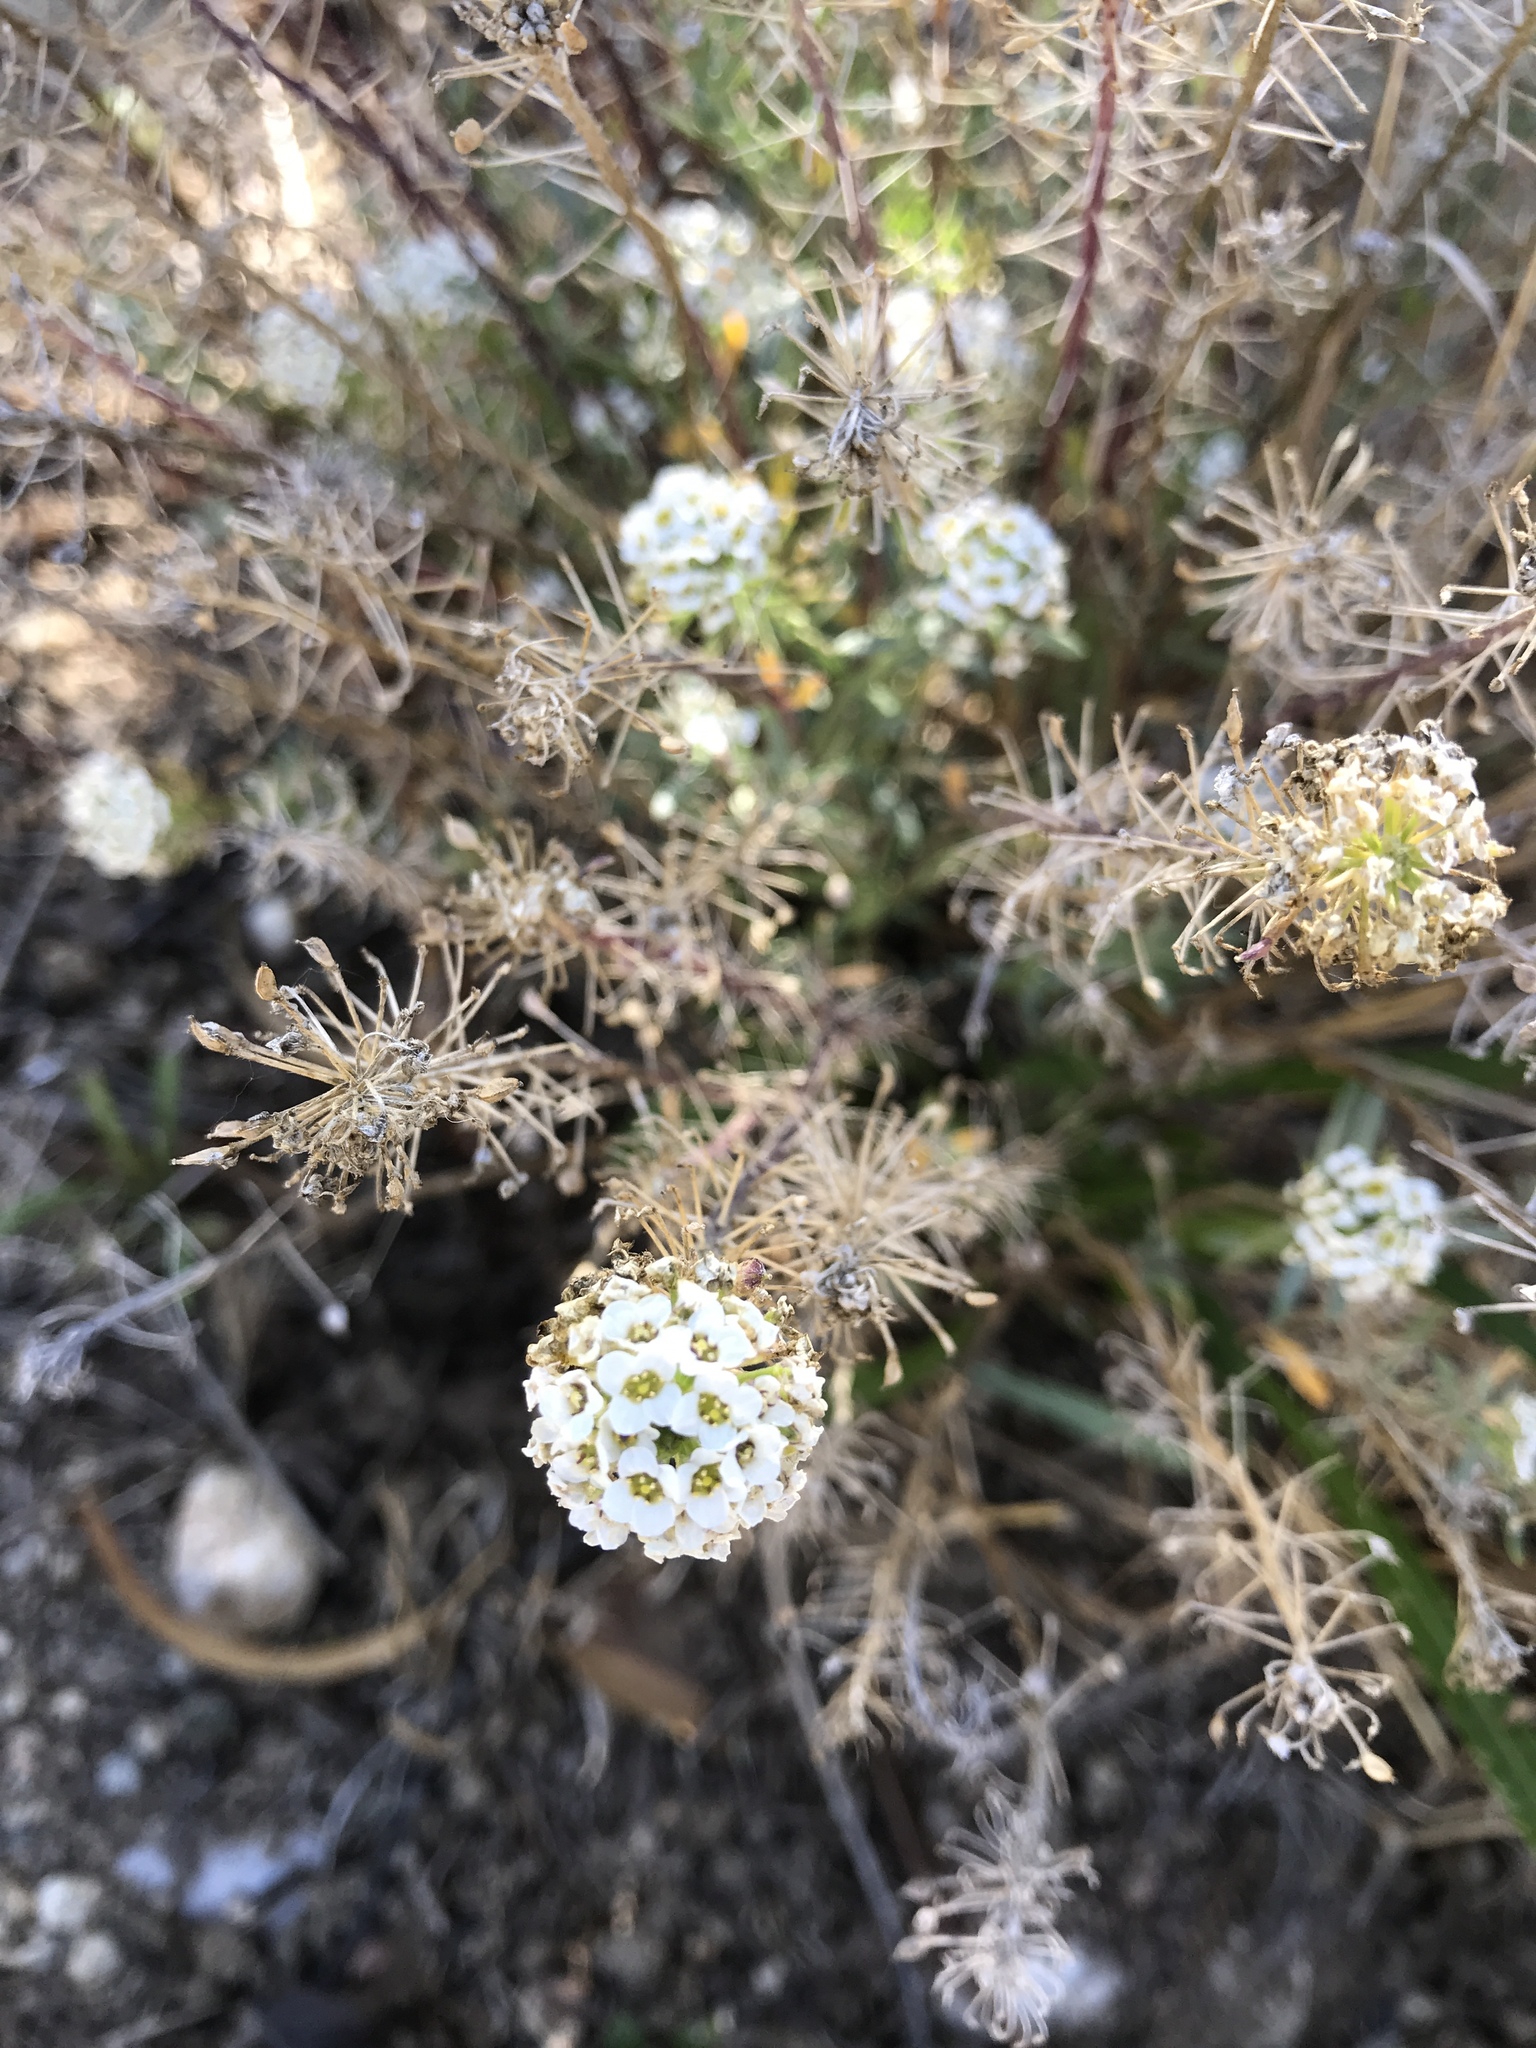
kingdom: Plantae
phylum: Tracheophyta
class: Magnoliopsida
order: Brassicales
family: Brassicaceae
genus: Lobularia
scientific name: Lobularia maritima
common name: Sweet alison
